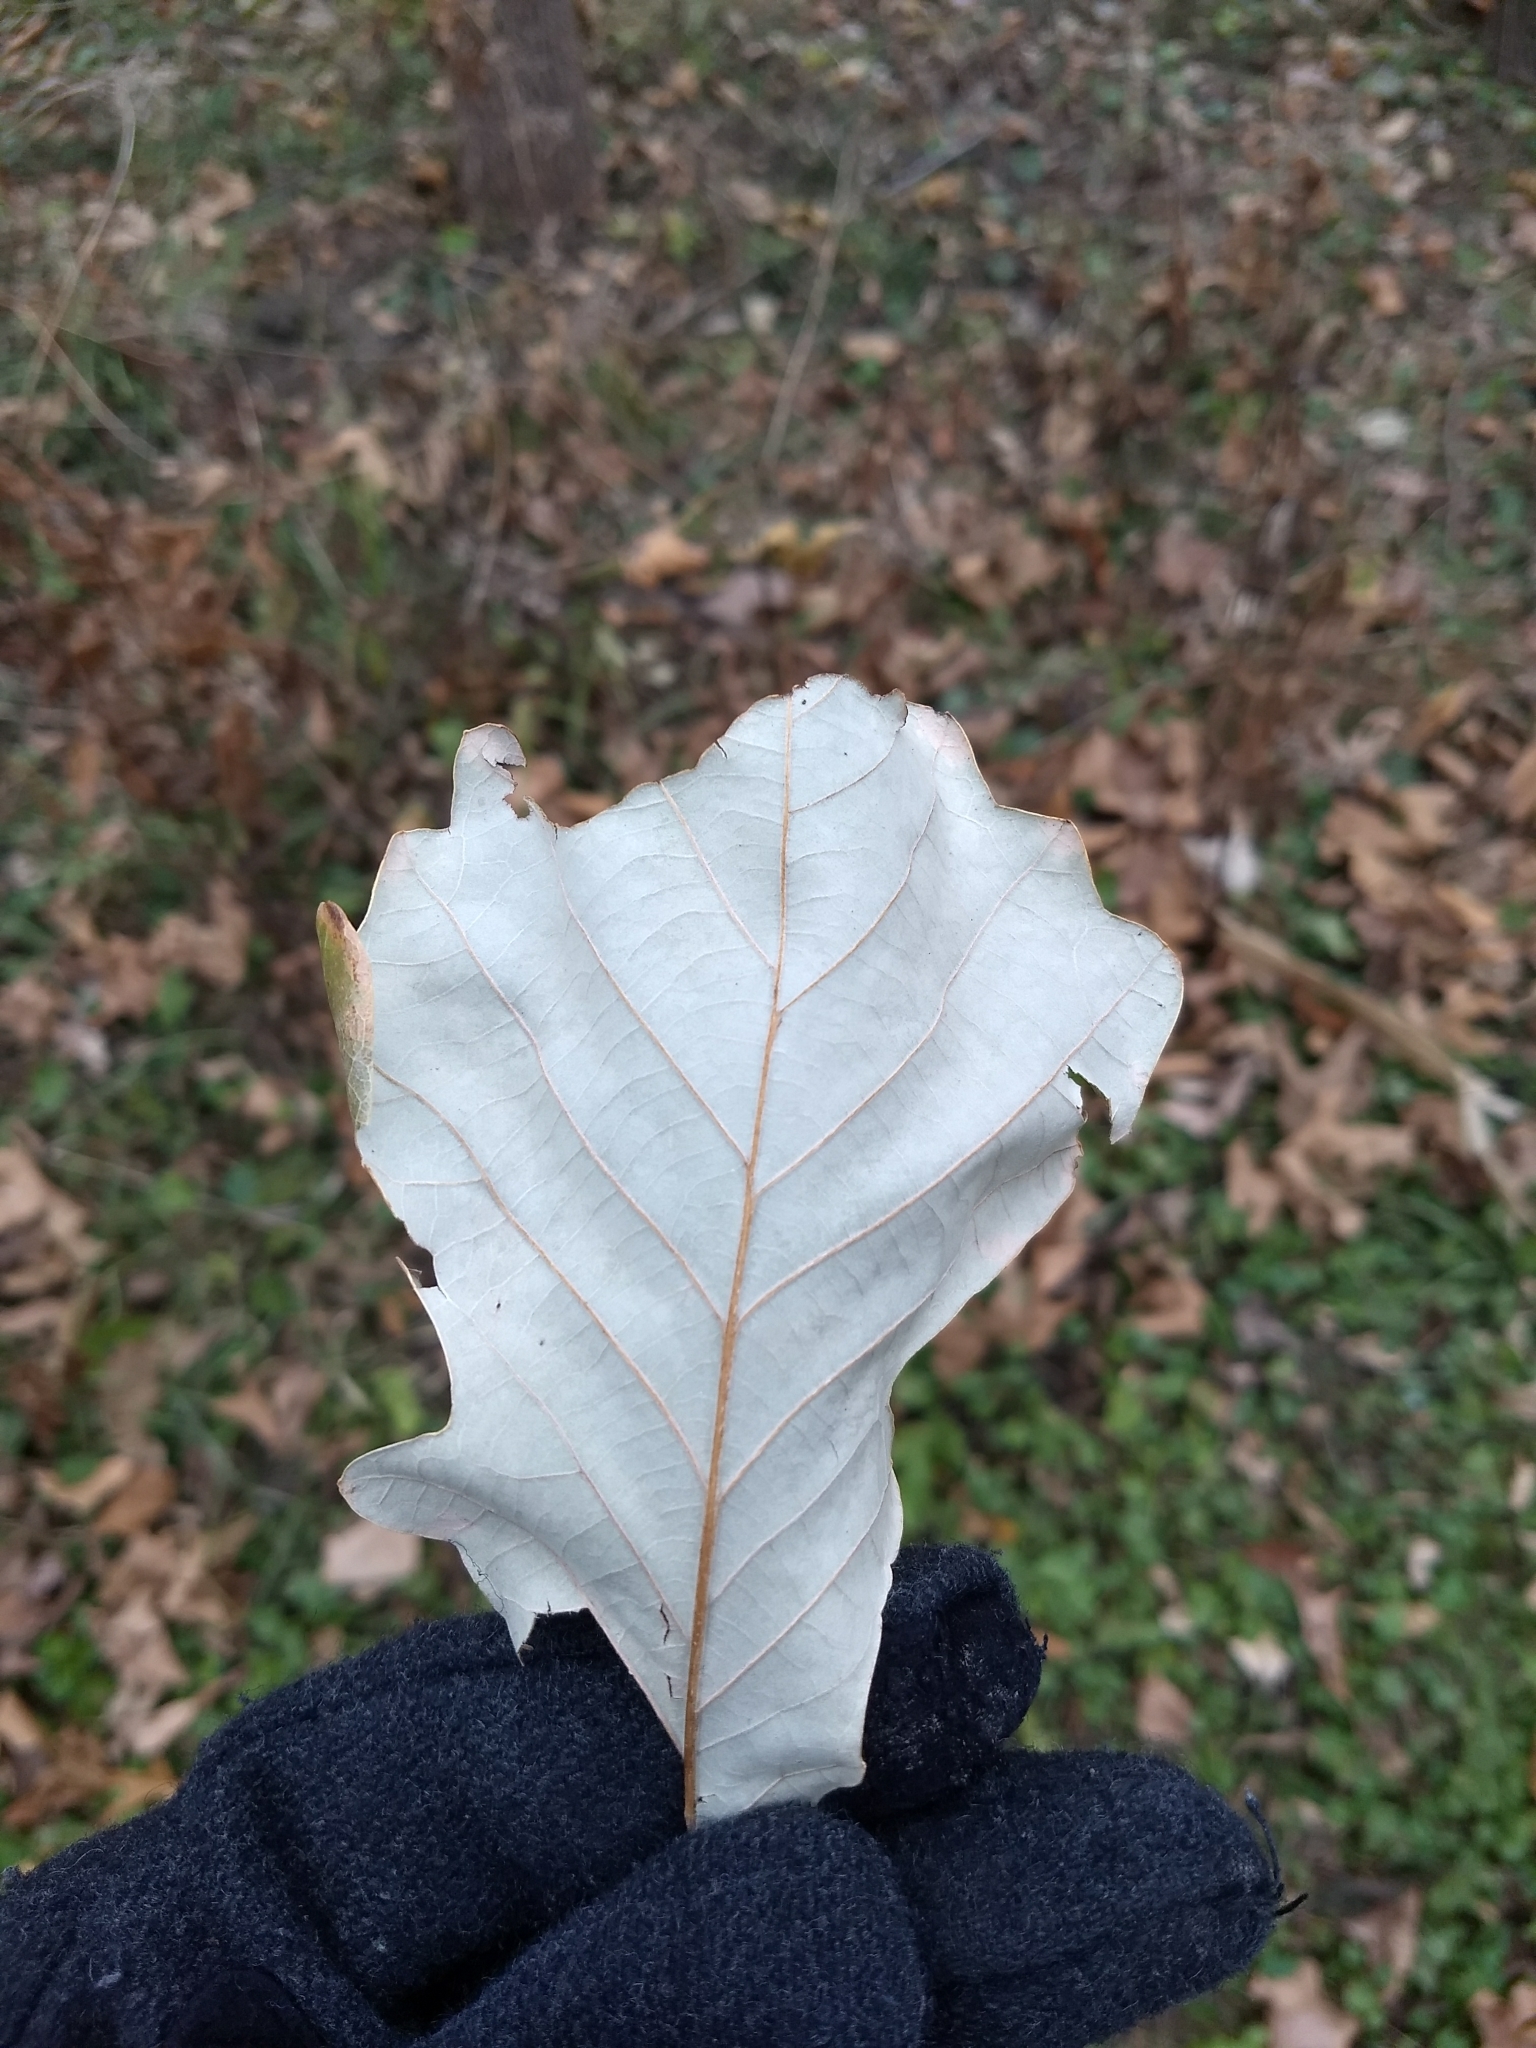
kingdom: Plantae
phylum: Tracheophyta
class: Magnoliopsida
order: Fagales
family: Fagaceae
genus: Quercus
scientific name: Quercus bicolor
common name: Swamp white oak
